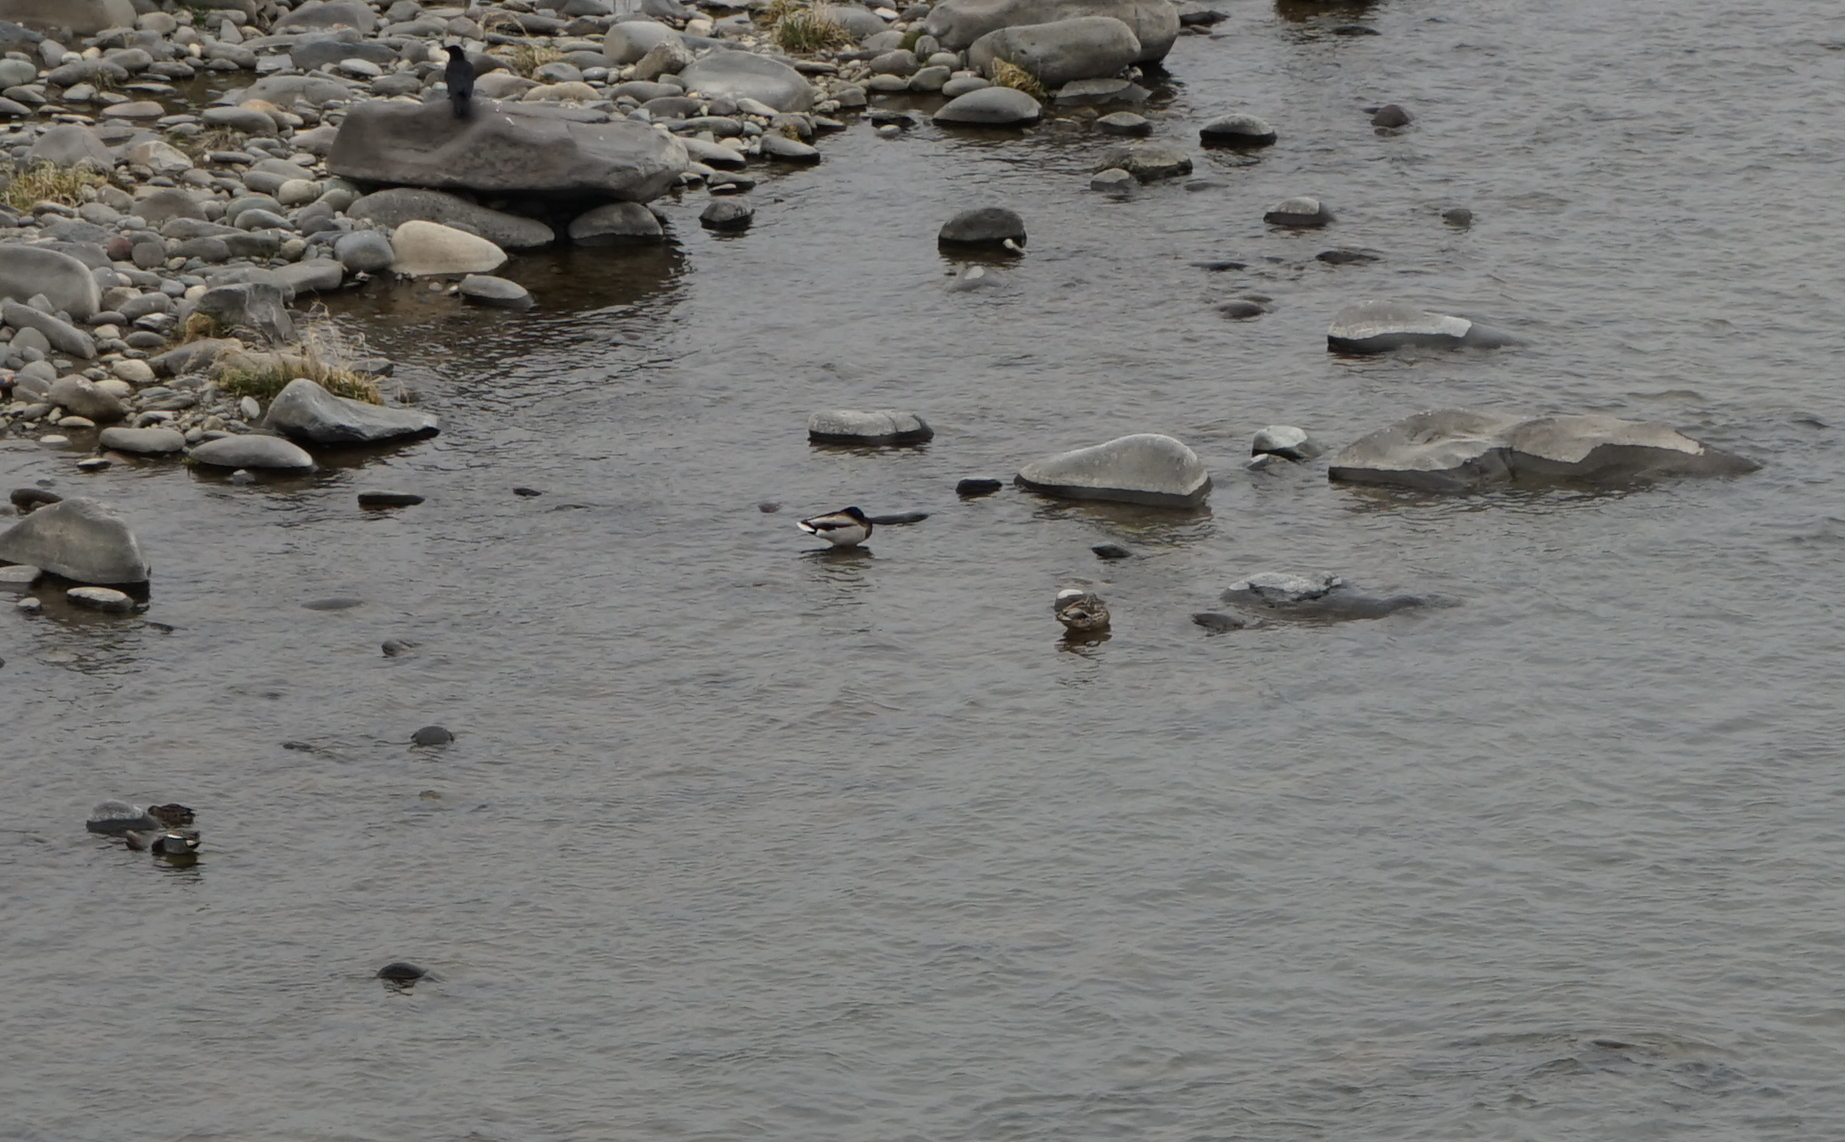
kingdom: Animalia
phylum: Chordata
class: Aves
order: Anseriformes
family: Anatidae
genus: Anas
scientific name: Anas platyrhynchos
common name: Mallard
